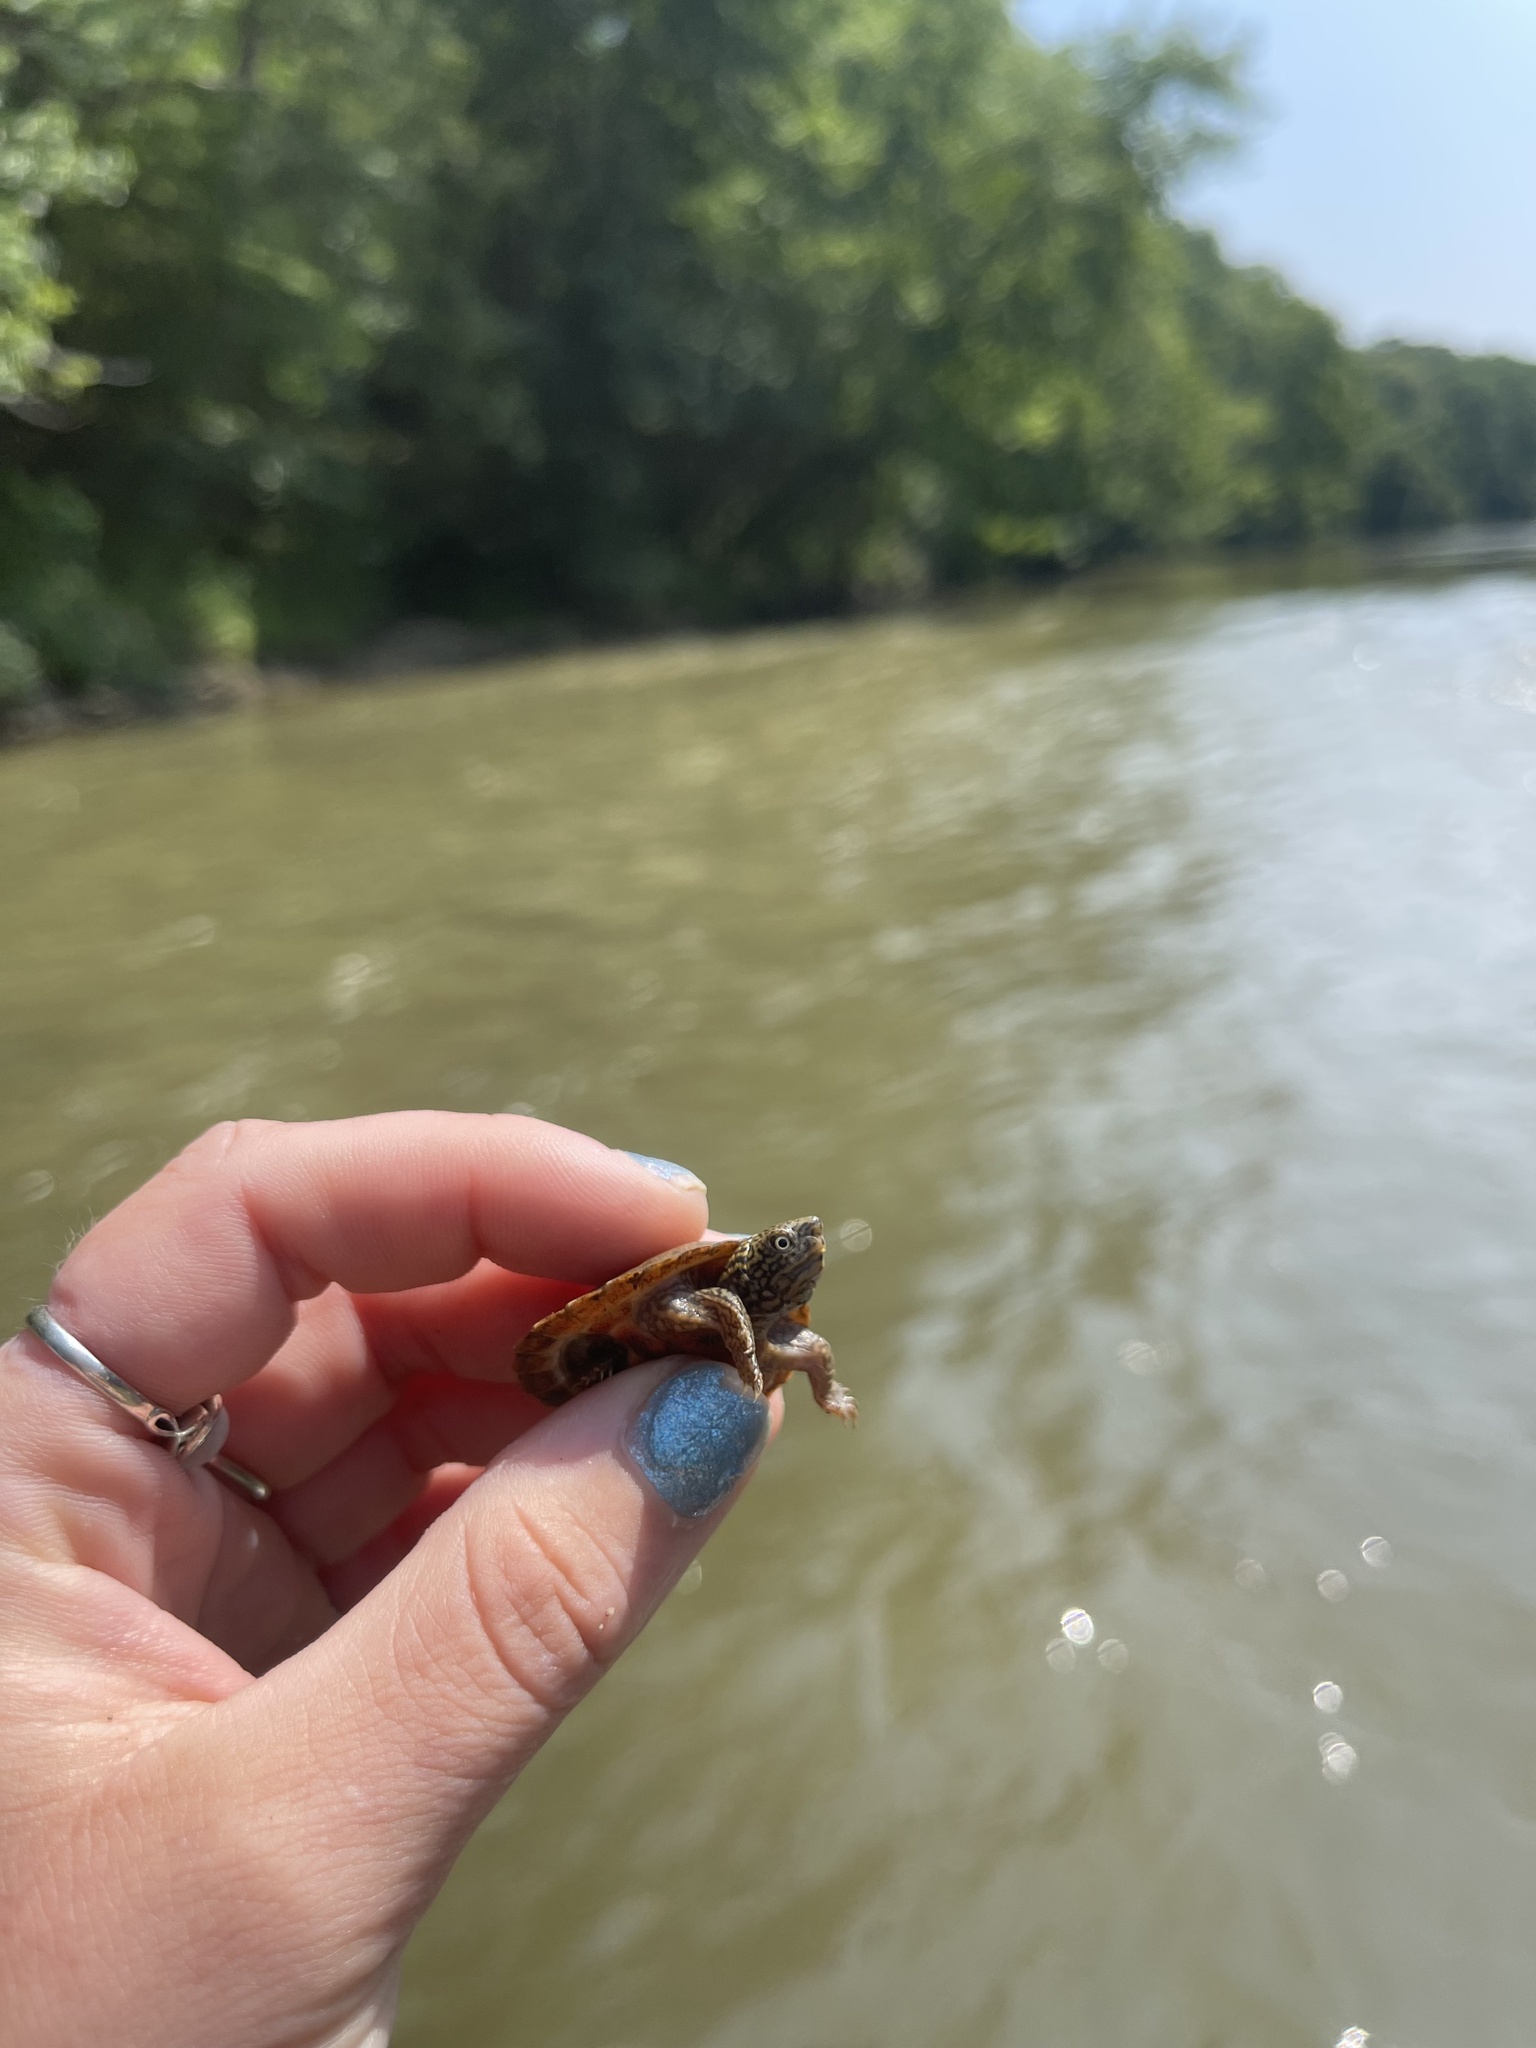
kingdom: Animalia
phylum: Chordata
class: Testudines
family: Kinosternidae
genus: Sternotherus
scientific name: Sternotherus peltifer
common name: Stripeneck musk turtle
